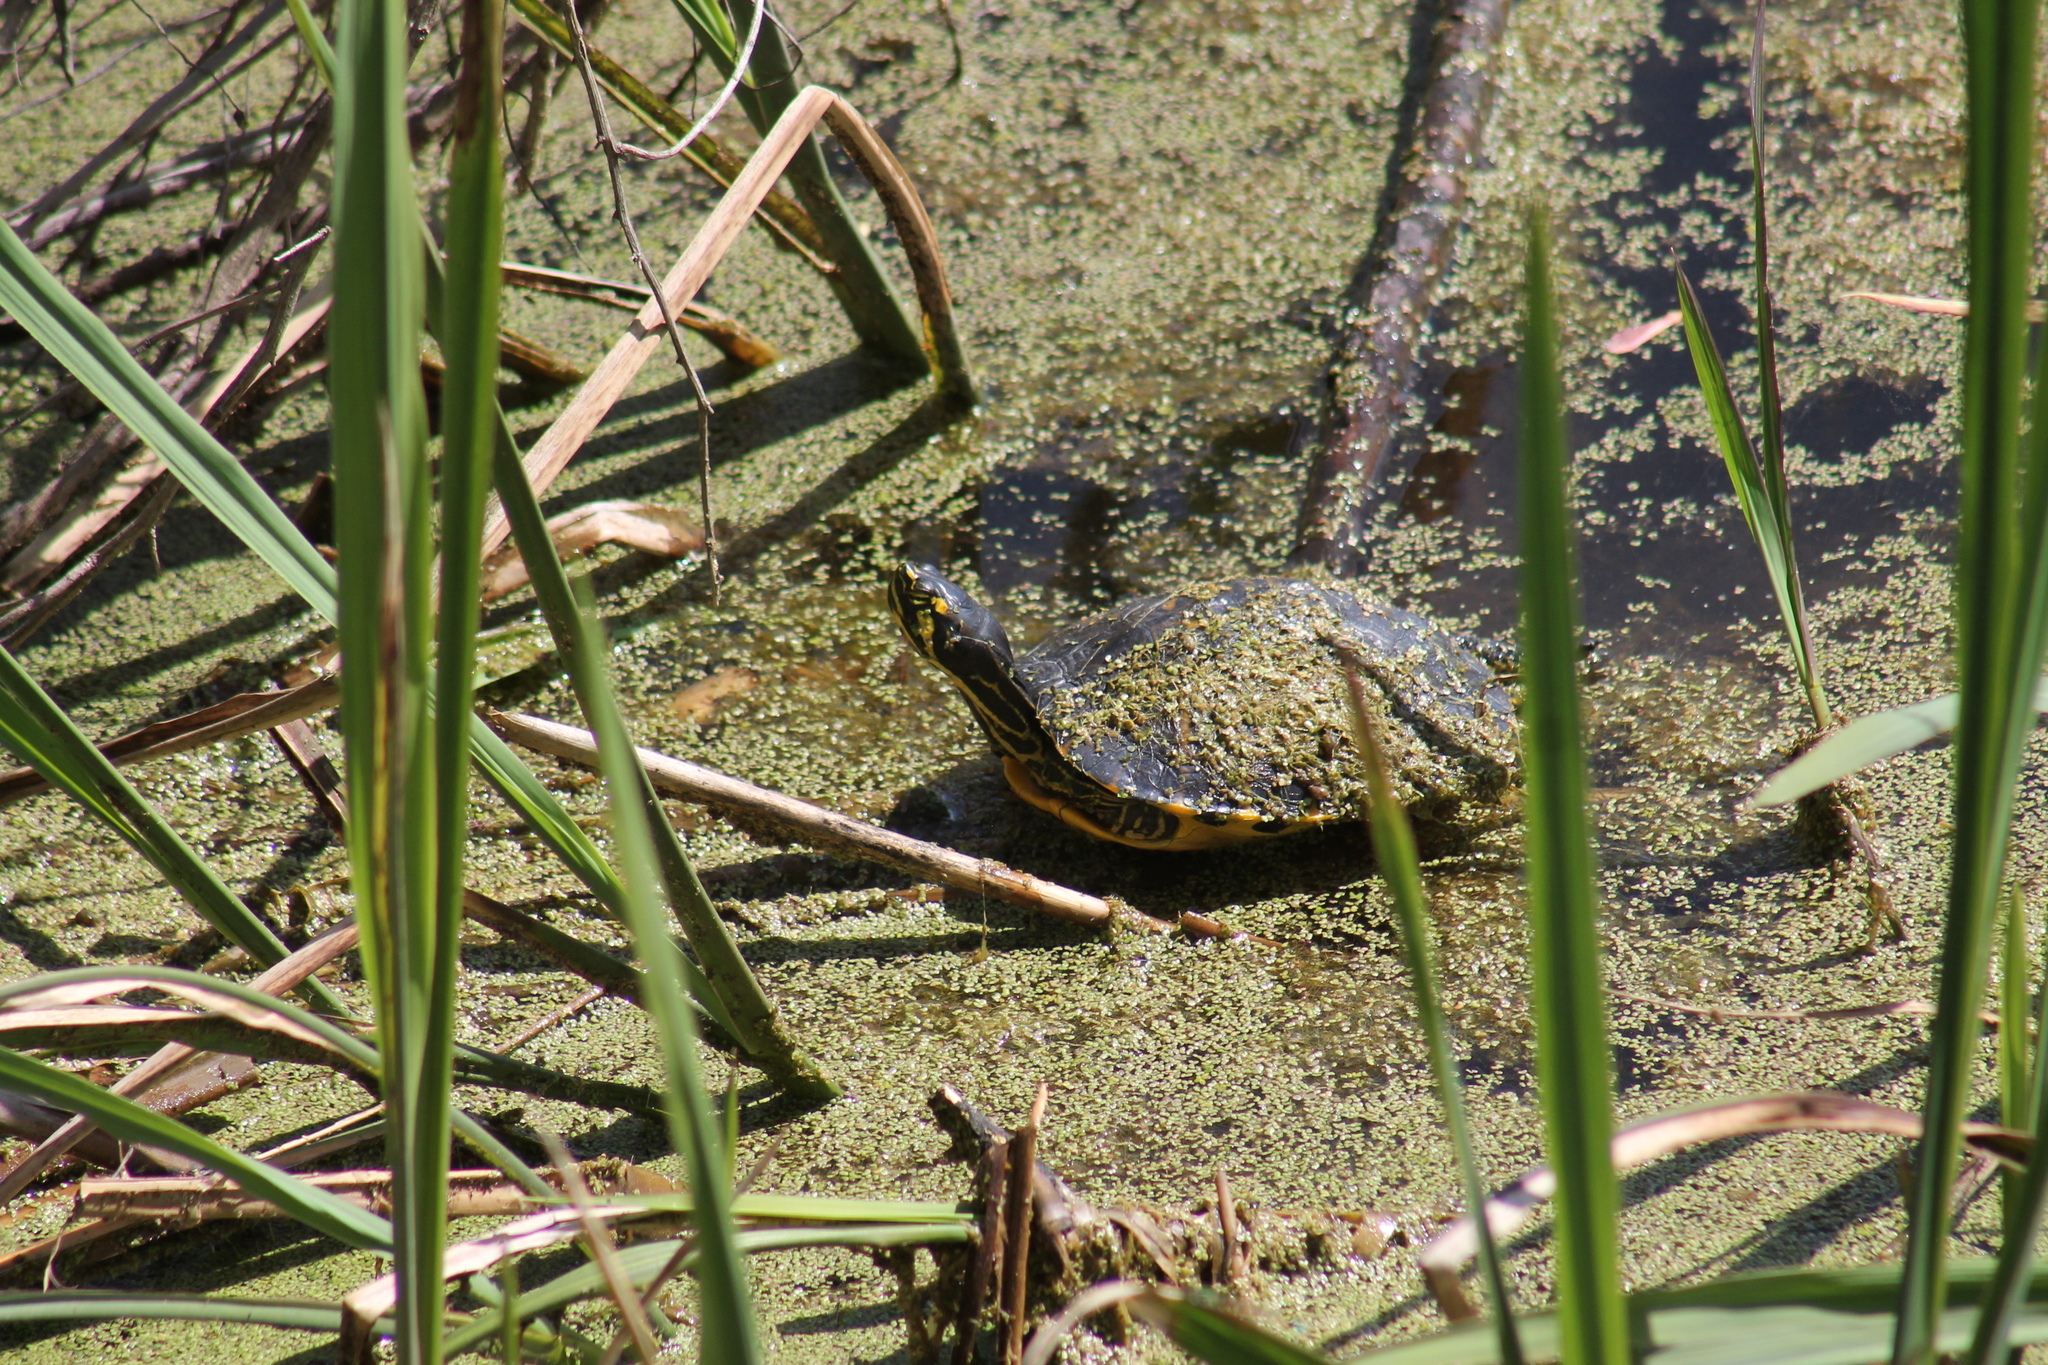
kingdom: Animalia
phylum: Chordata
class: Testudines
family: Emydidae
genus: Trachemys
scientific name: Trachemys scripta
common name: Slider
